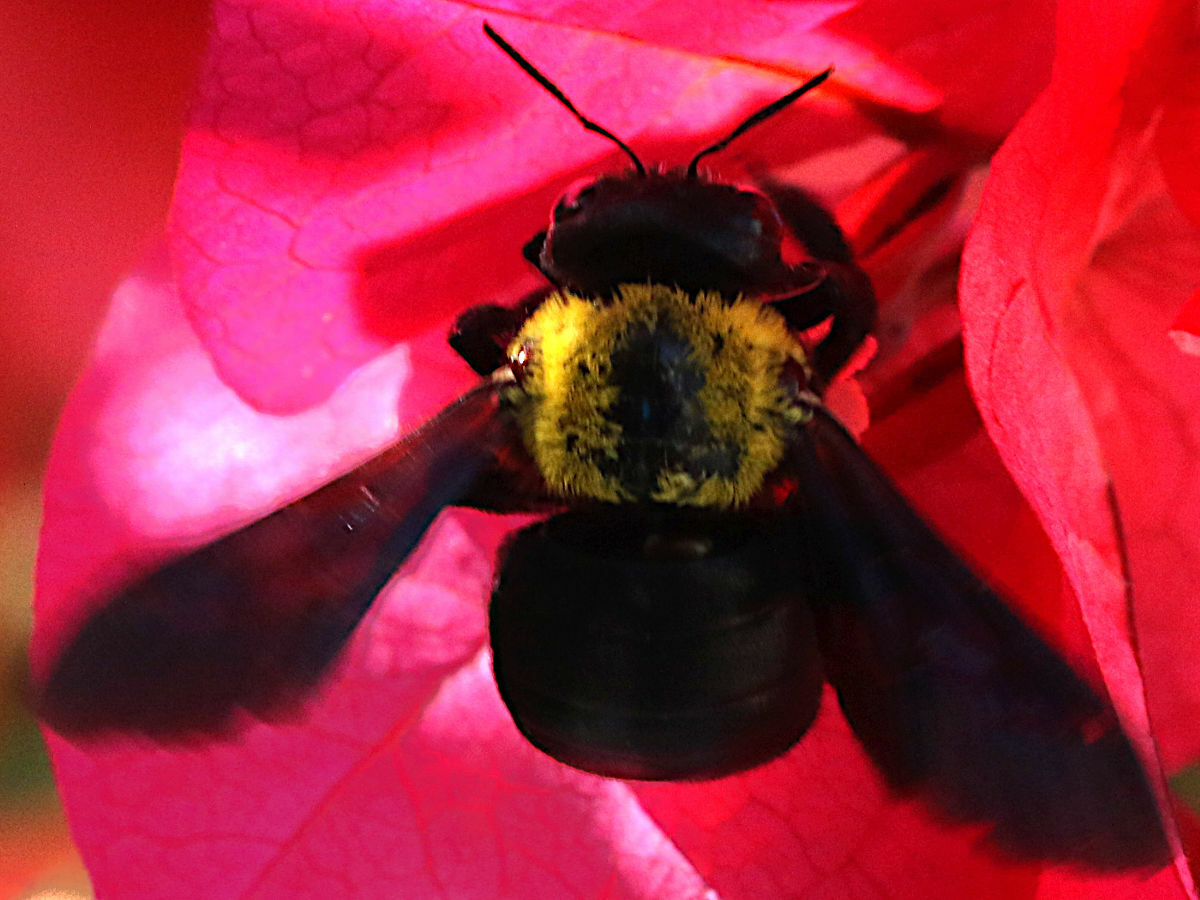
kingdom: Animalia
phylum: Arthropoda
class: Insecta
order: Hymenoptera
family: Apidae
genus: Xylocopa
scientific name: Xylocopa pubescens
